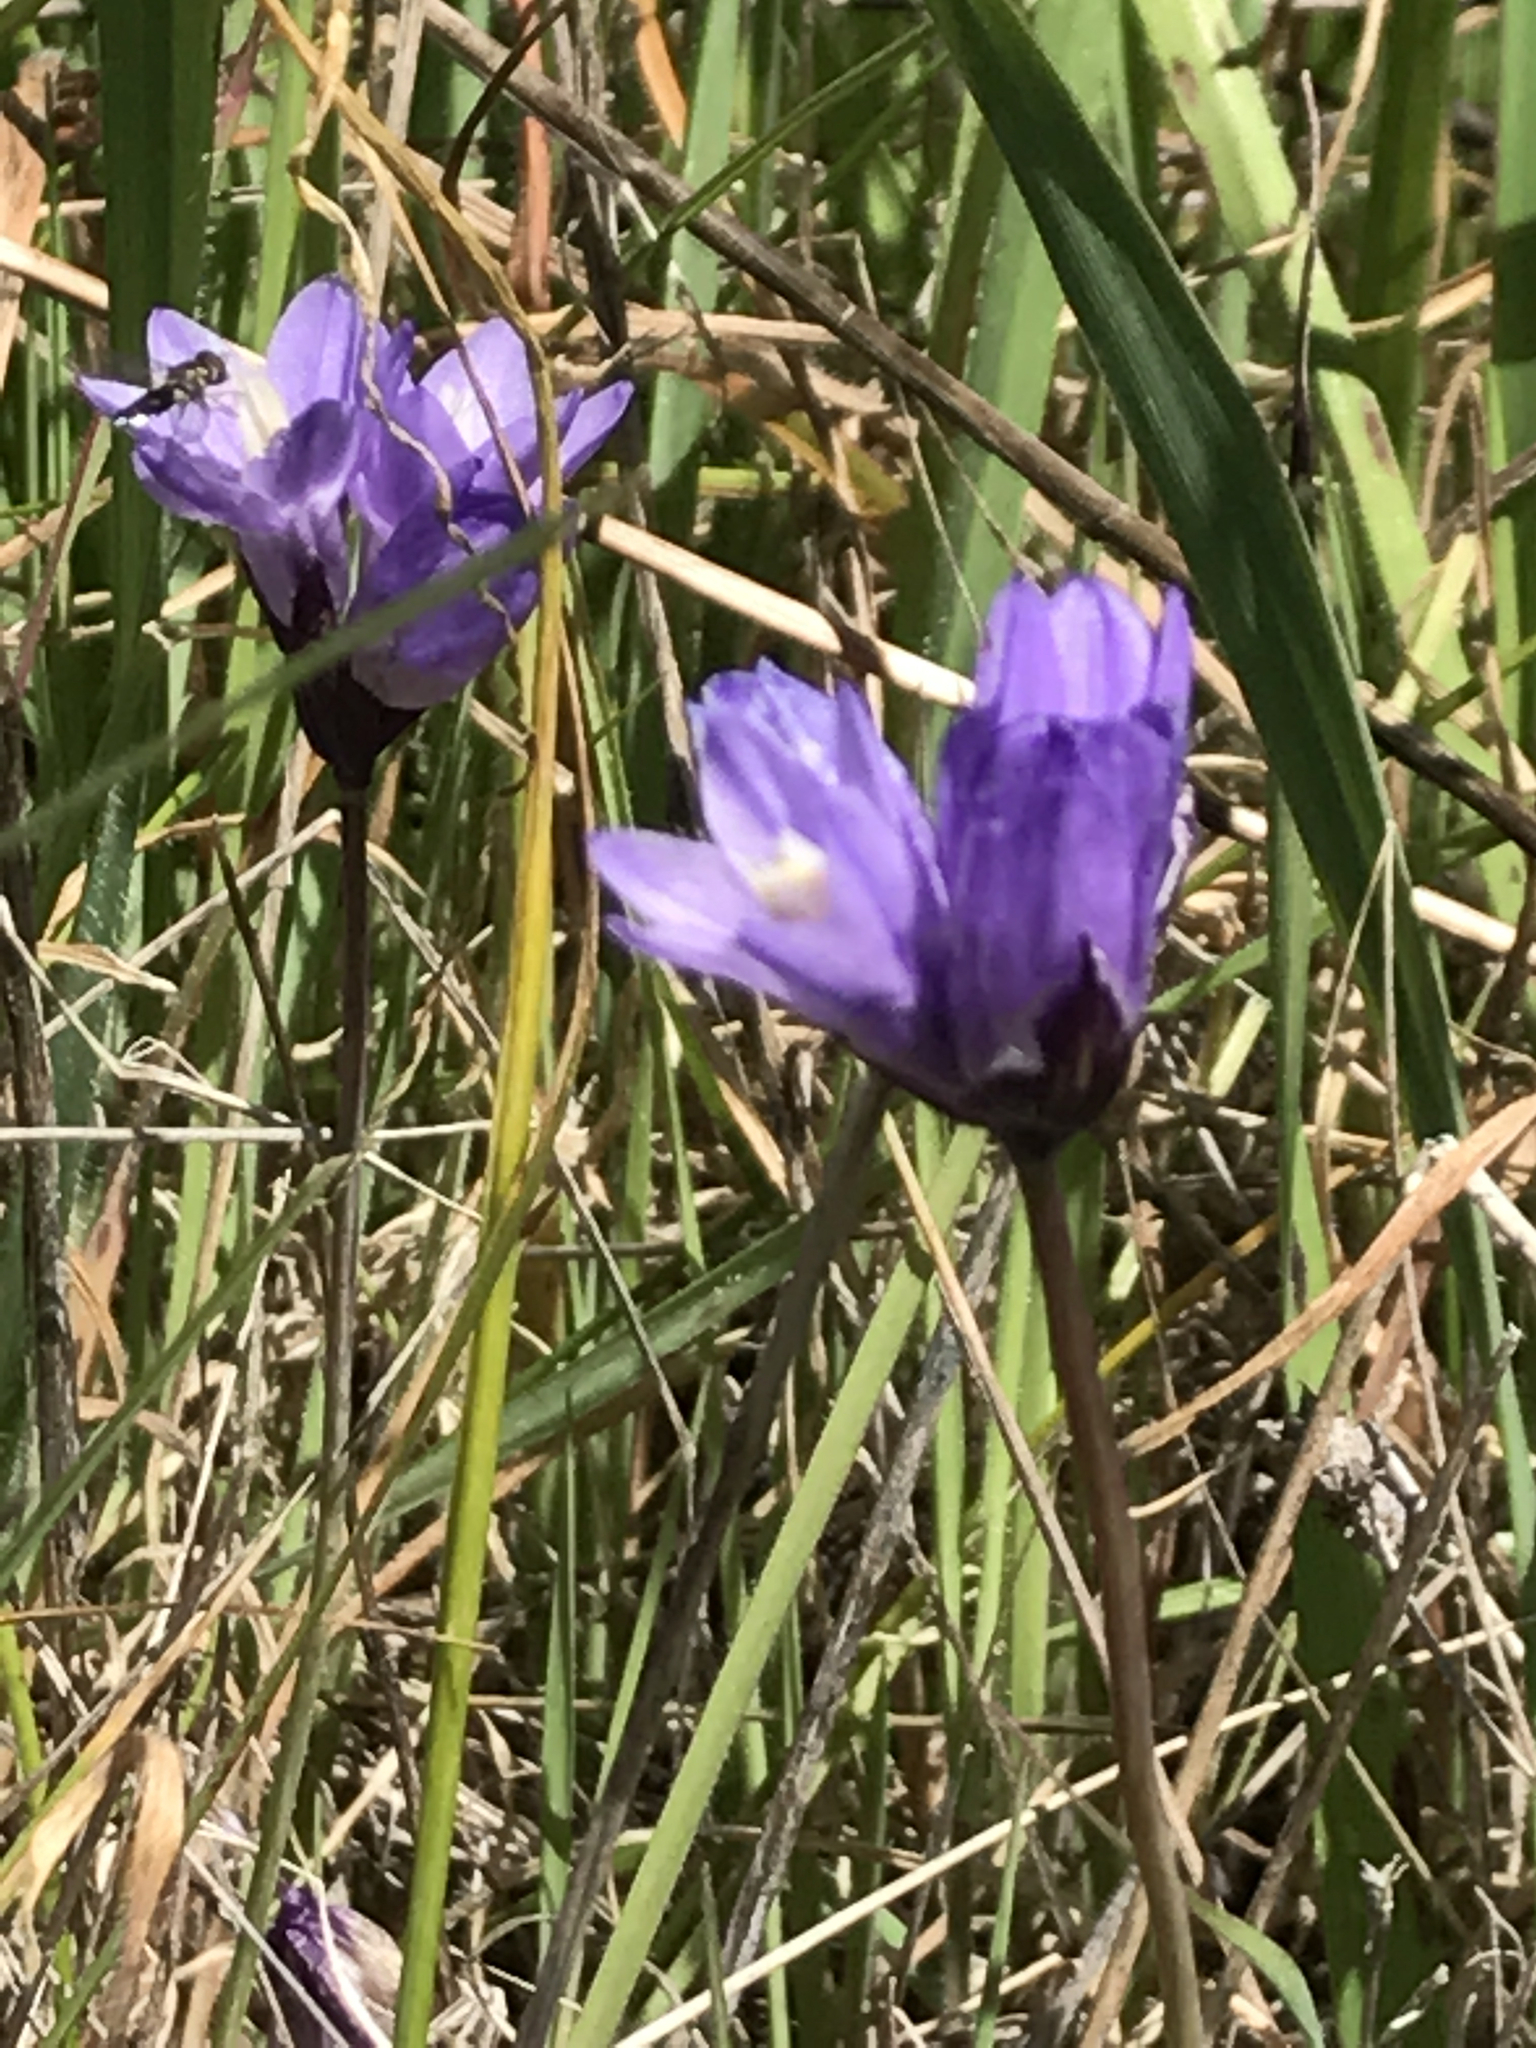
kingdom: Plantae
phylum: Tracheophyta
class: Liliopsida
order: Asparagales
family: Asparagaceae
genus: Dipterostemon
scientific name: Dipterostemon capitatus
